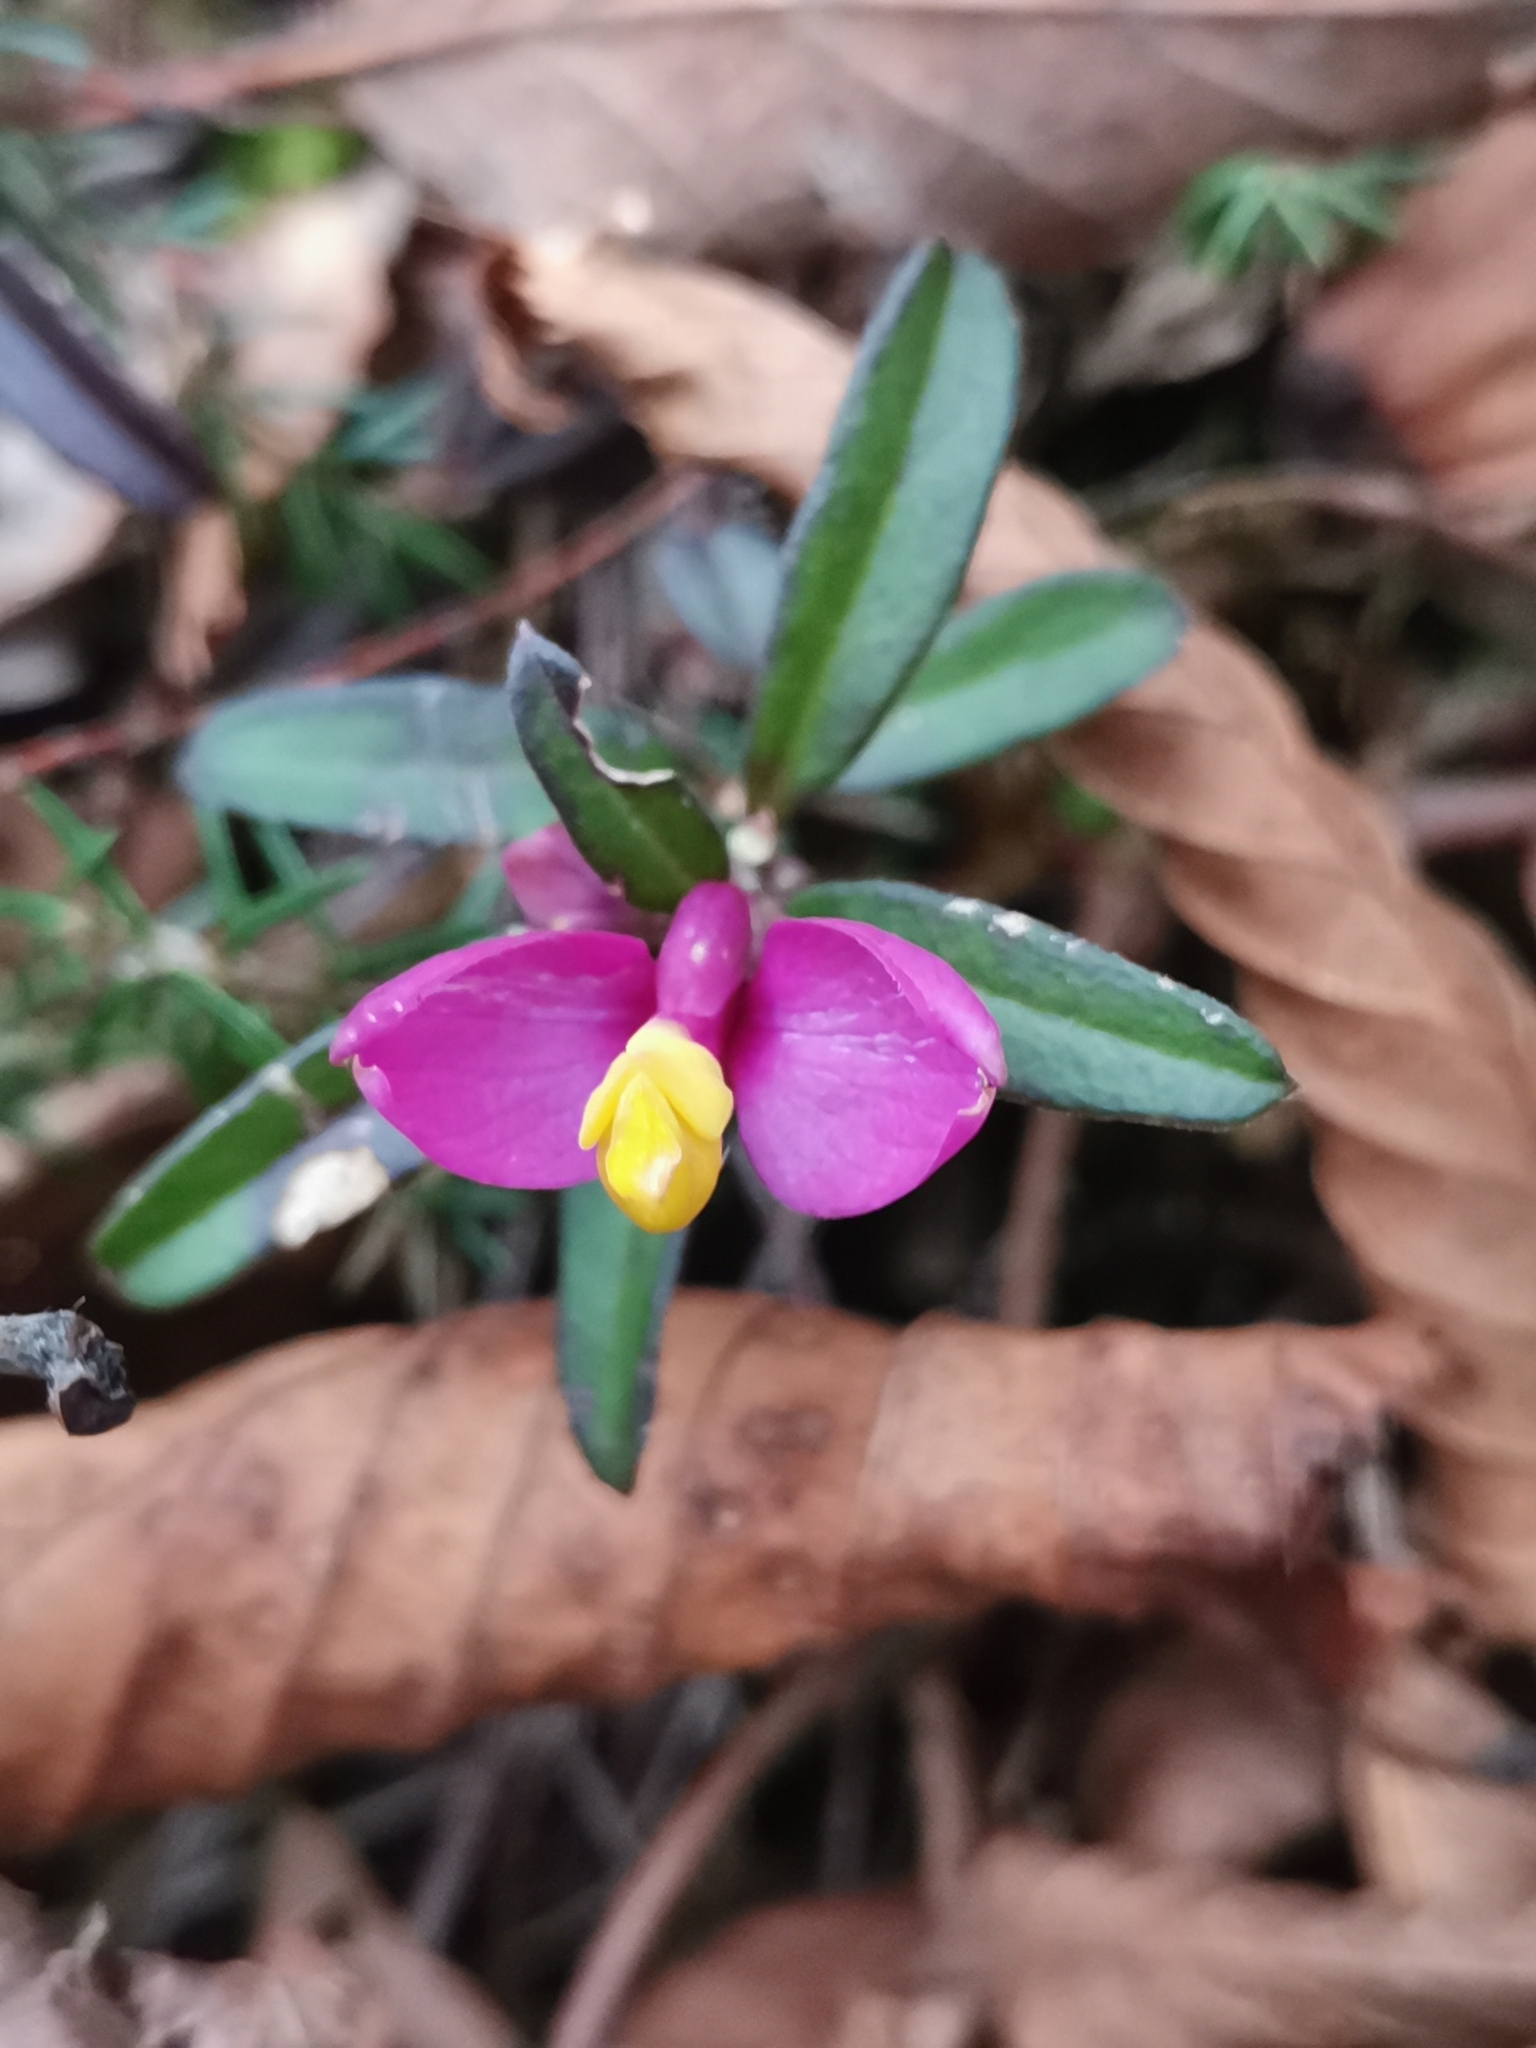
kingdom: Plantae
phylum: Tracheophyta
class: Magnoliopsida
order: Fabales
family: Polygalaceae
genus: Polygaloides
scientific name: Polygaloides chamaebuxus
